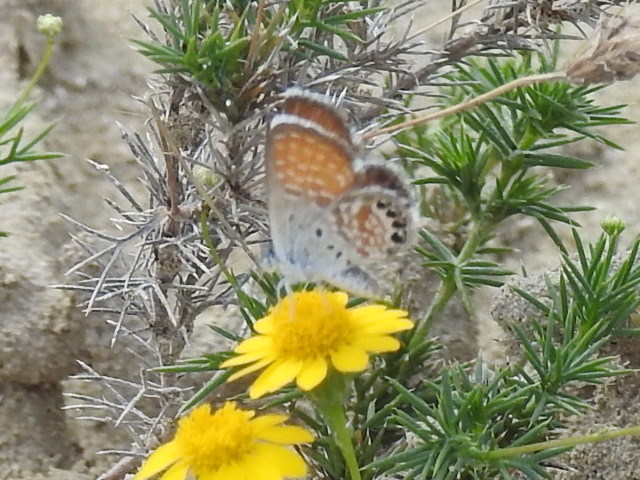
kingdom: Animalia
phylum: Arthropoda
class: Insecta
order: Lepidoptera
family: Lycaenidae
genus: Brephidium
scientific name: Brephidium exilis
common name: Pygmy blue
